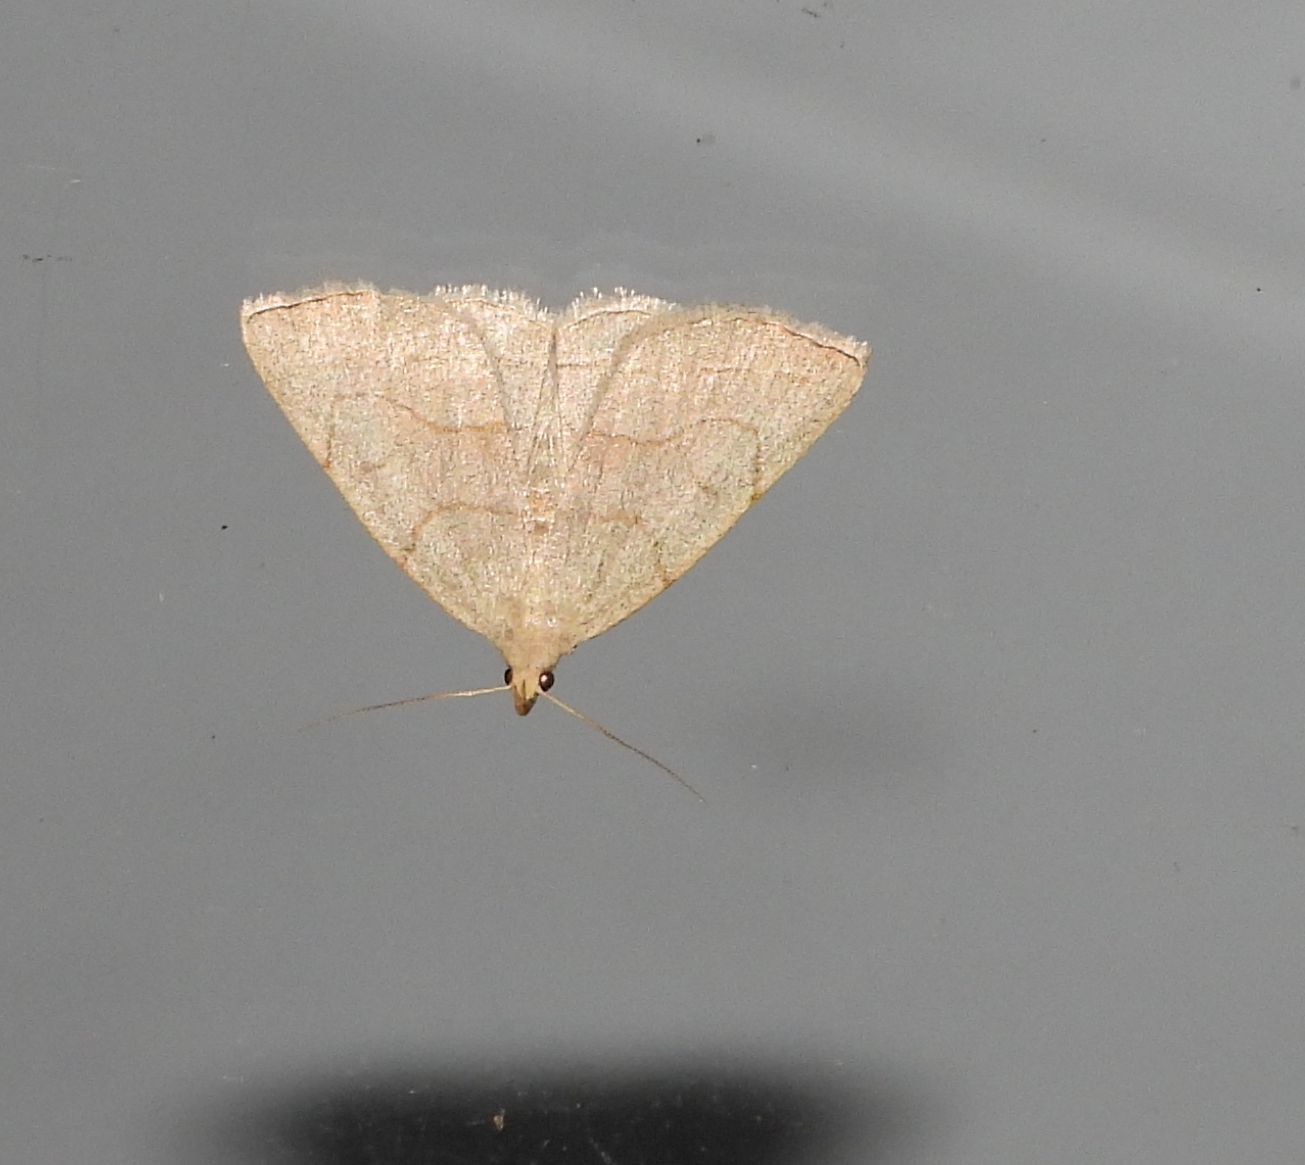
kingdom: Animalia
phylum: Arthropoda
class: Insecta
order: Lepidoptera
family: Erebidae
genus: Zanclognatha
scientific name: Zanclognatha pedipilalis
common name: Grayish fan-foot
